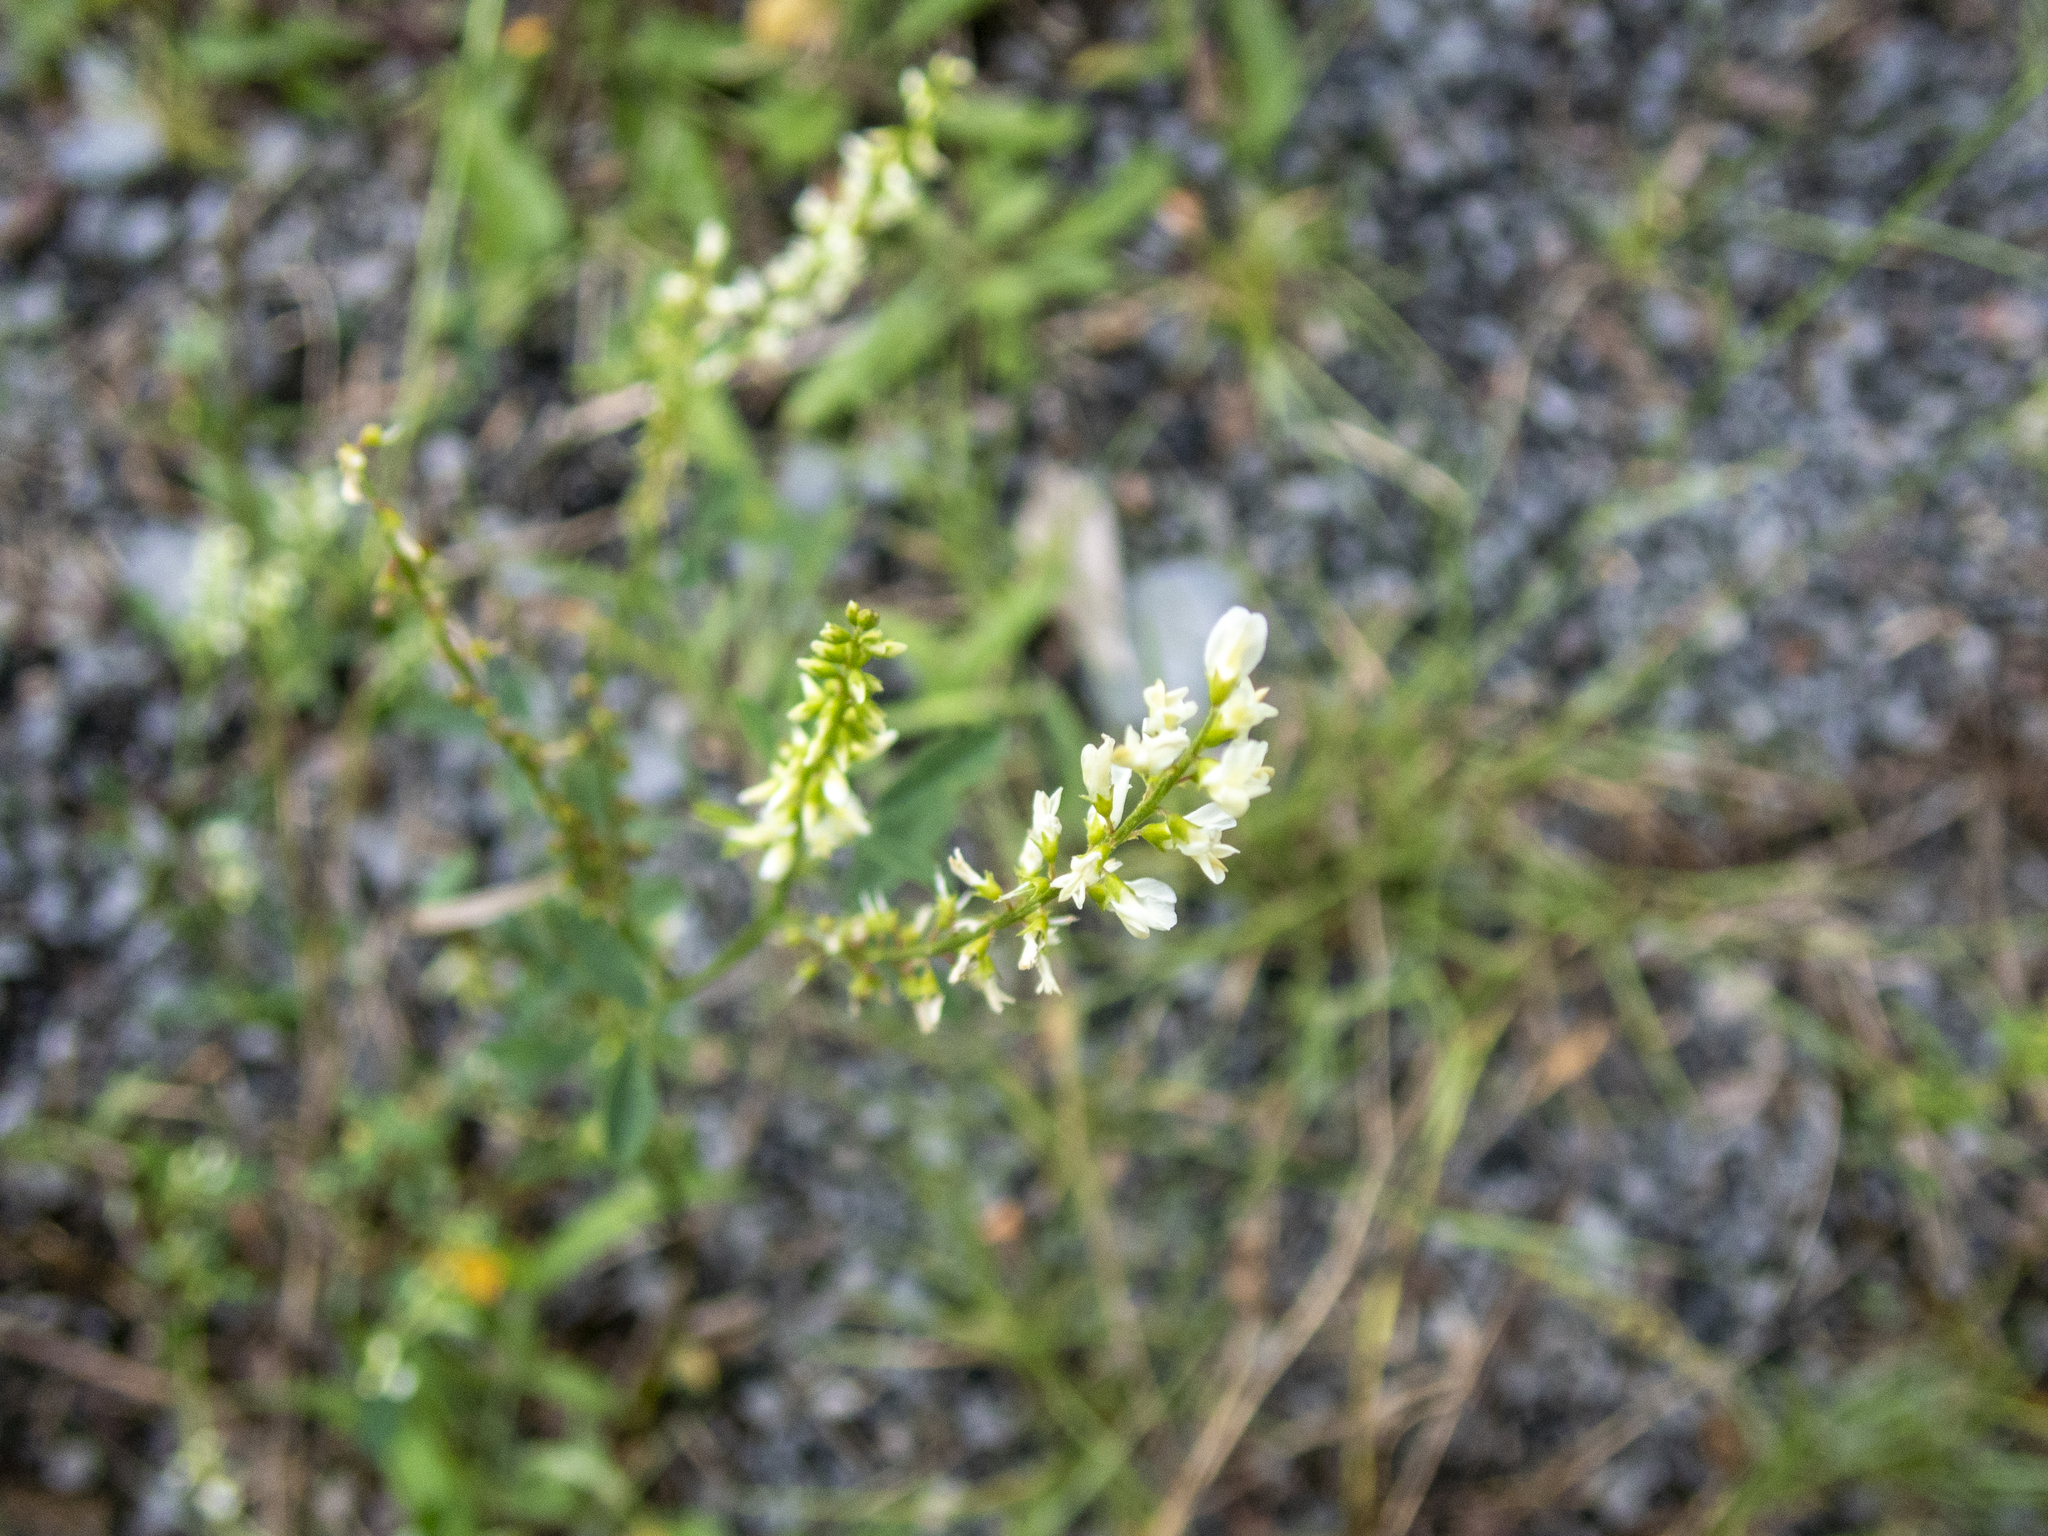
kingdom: Plantae
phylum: Tracheophyta
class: Magnoliopsida
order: Fabales
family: Fabaceae
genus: Melilotus
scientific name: Melilotus albus
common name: White melilot
